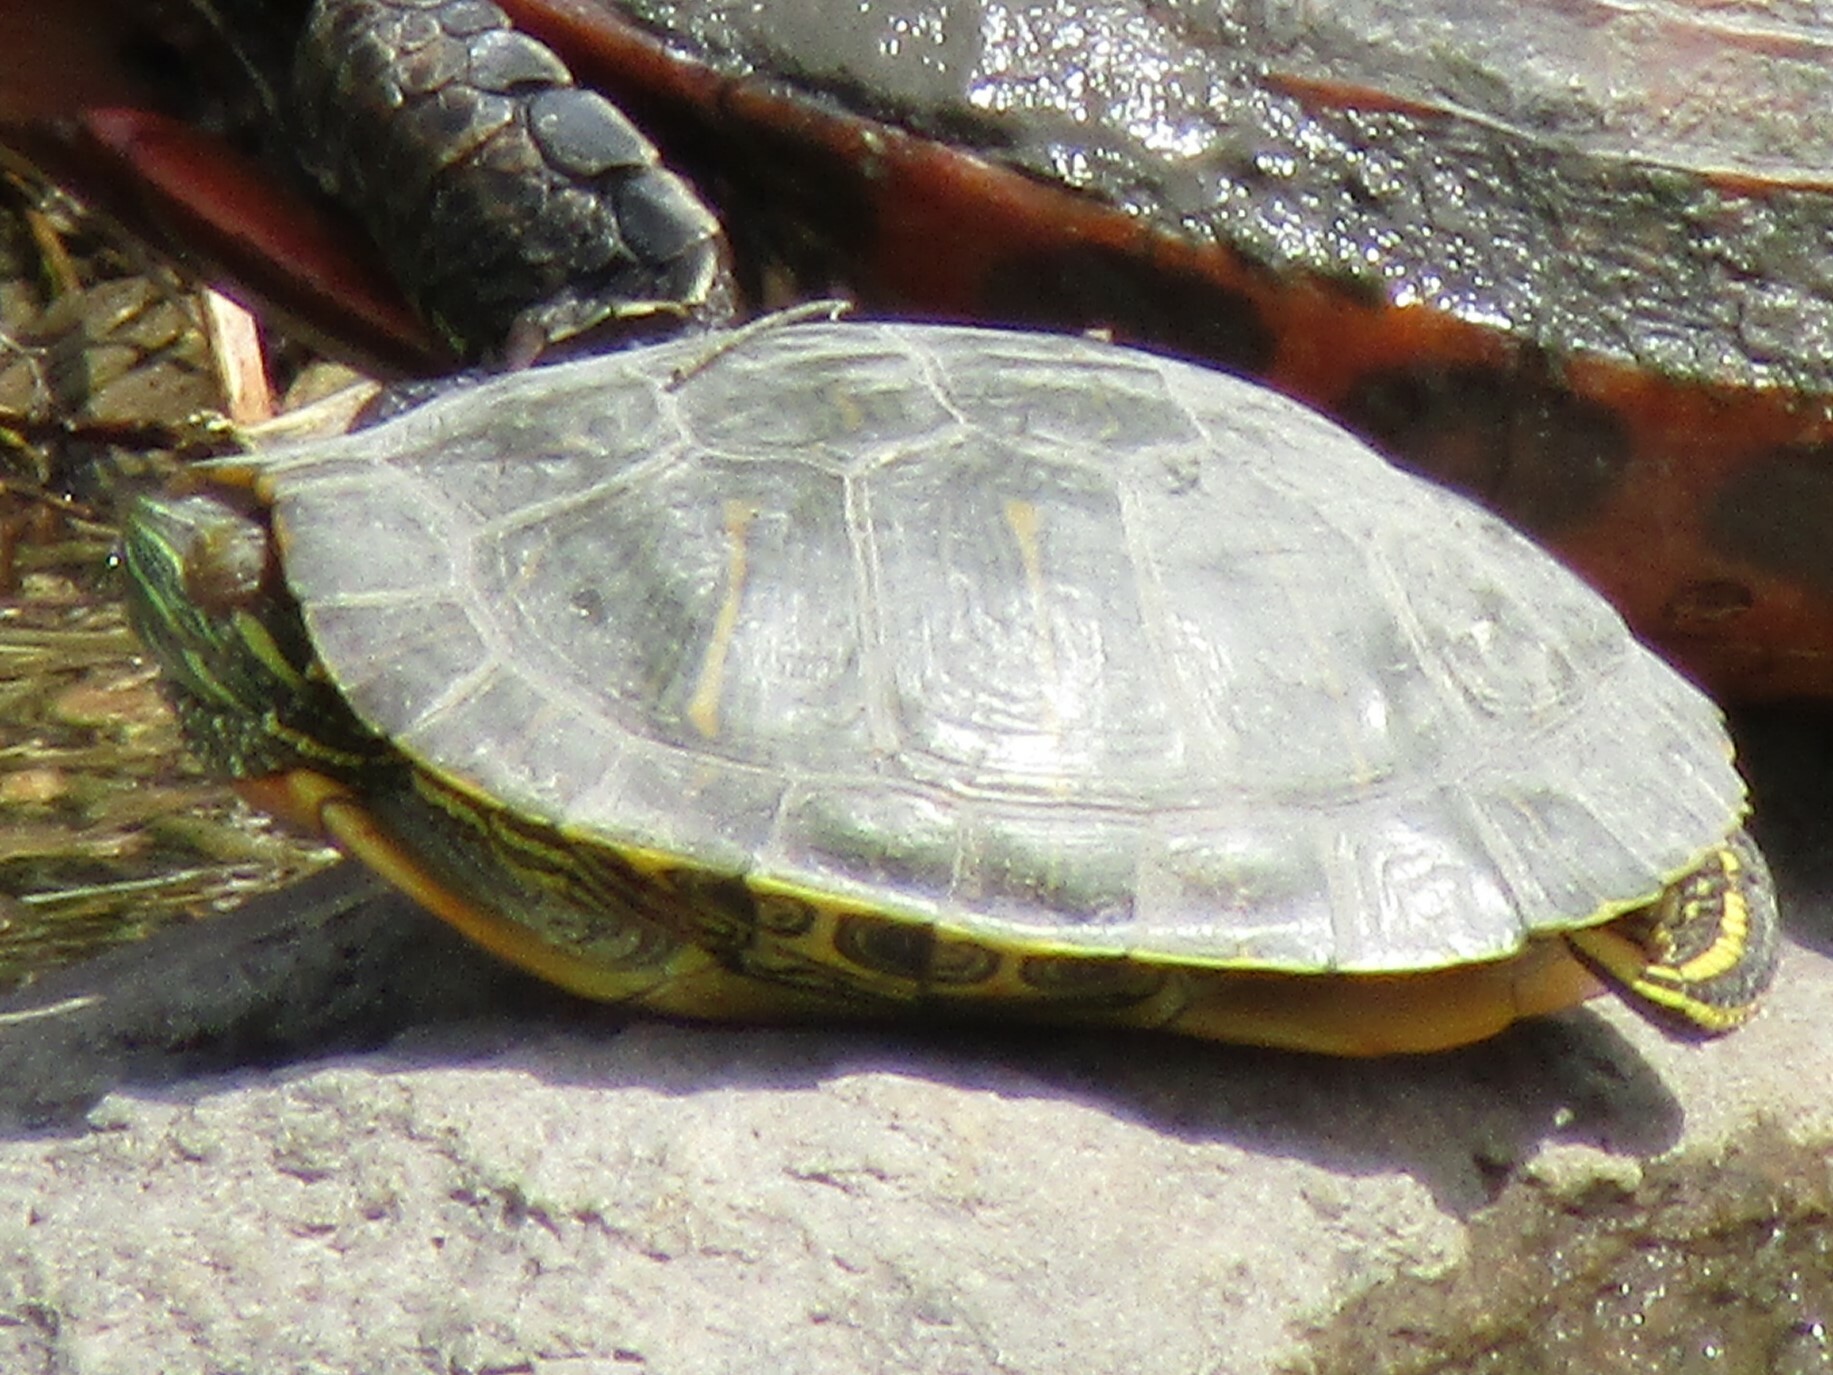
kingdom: Animalia
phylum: Chordata
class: Testudines
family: Emydidae
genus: Trachemys
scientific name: Trachemys scripta
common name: Slider
